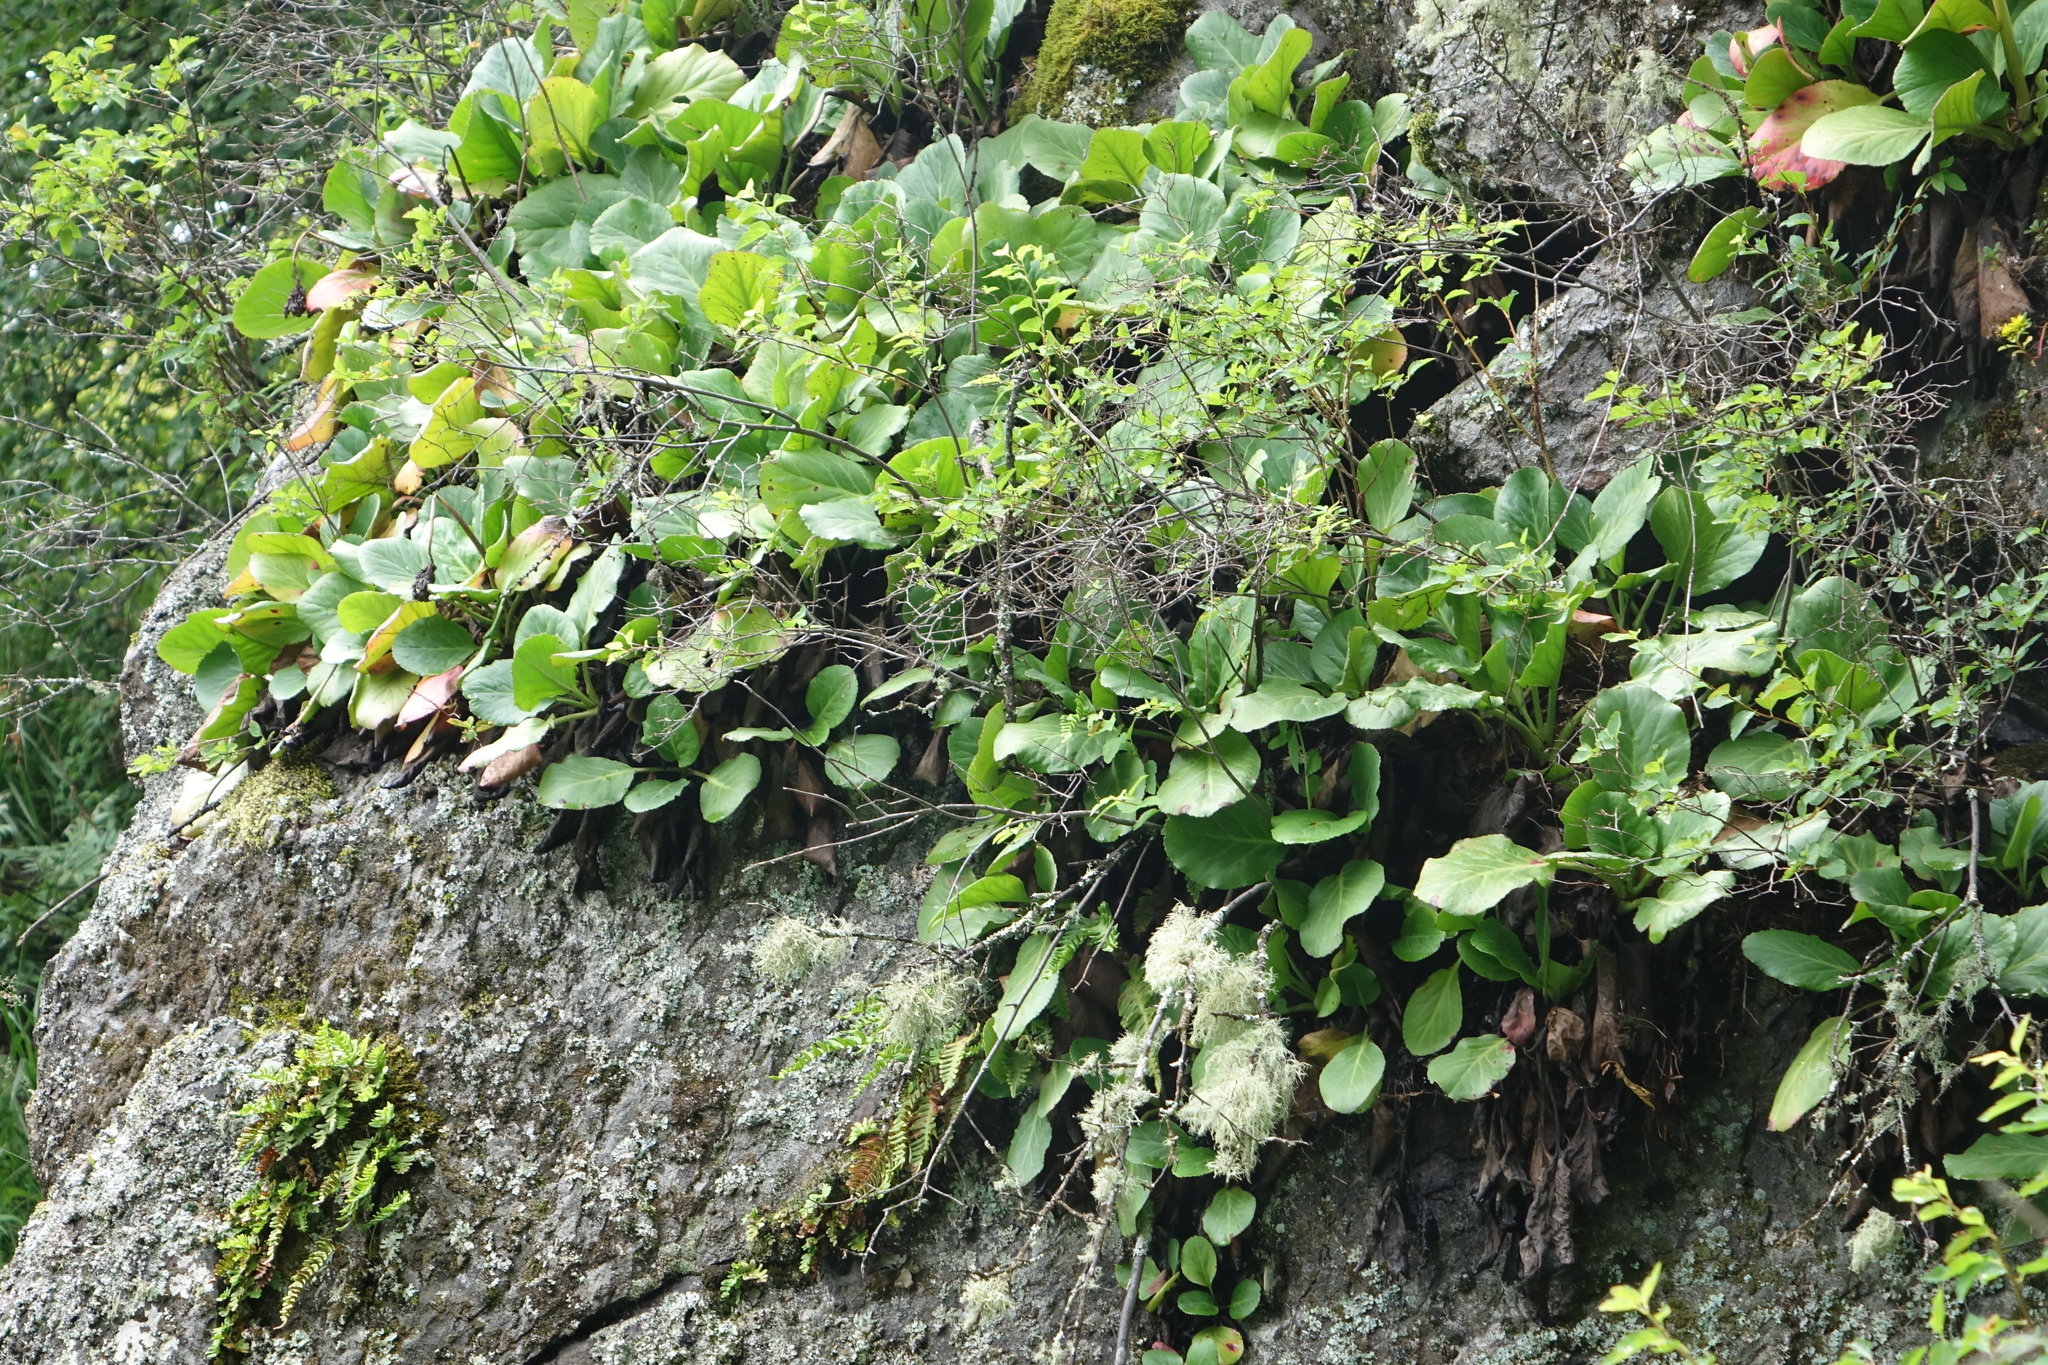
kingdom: Plantae
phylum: Tracheophyta
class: Magnoliopsida
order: Saxifragales
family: Saxifragaceae
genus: Bergenia
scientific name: Bergenia crassifolia
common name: Elephant-ears
